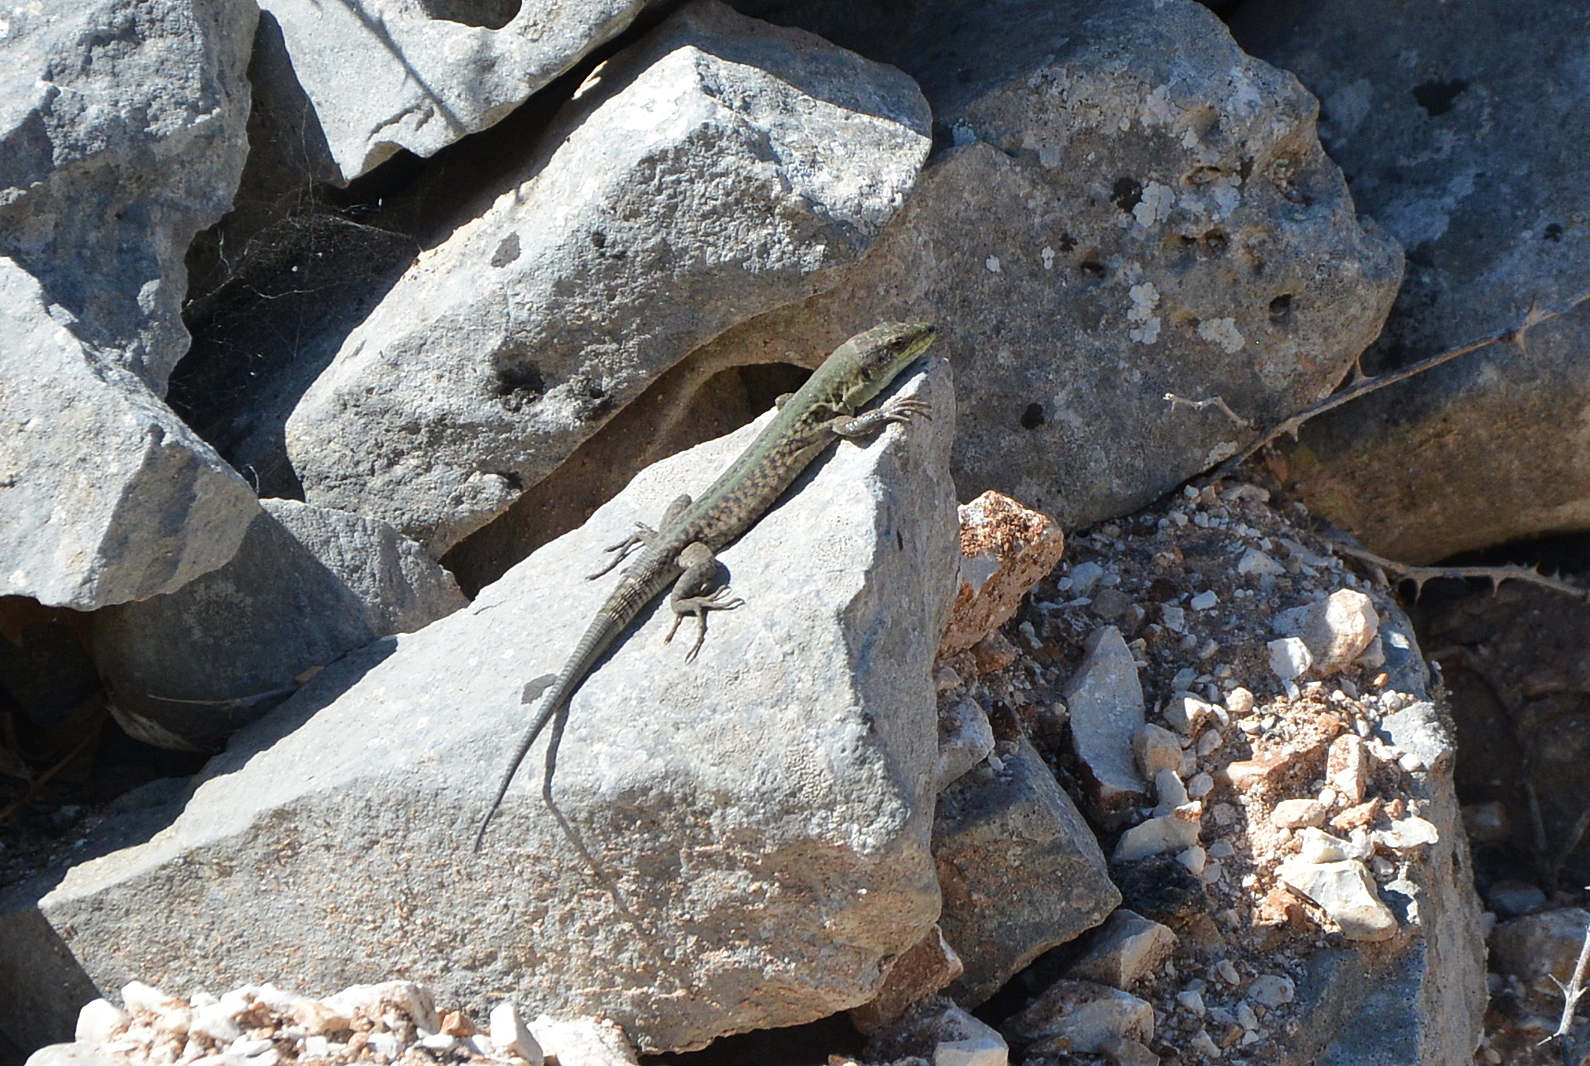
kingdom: Animalia
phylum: Chordata
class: Squamata
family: Lacertidae
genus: Podarcis
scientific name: Podarcis siculus
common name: Italian wall lizard
